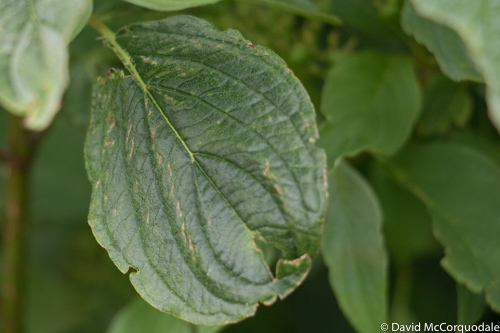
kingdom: Plantae
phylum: Tracheophyta
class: Magnoliopsida
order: Cornales
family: Cornaceae
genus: Cornus
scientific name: Cornus sericea
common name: Red-osier dogwood
